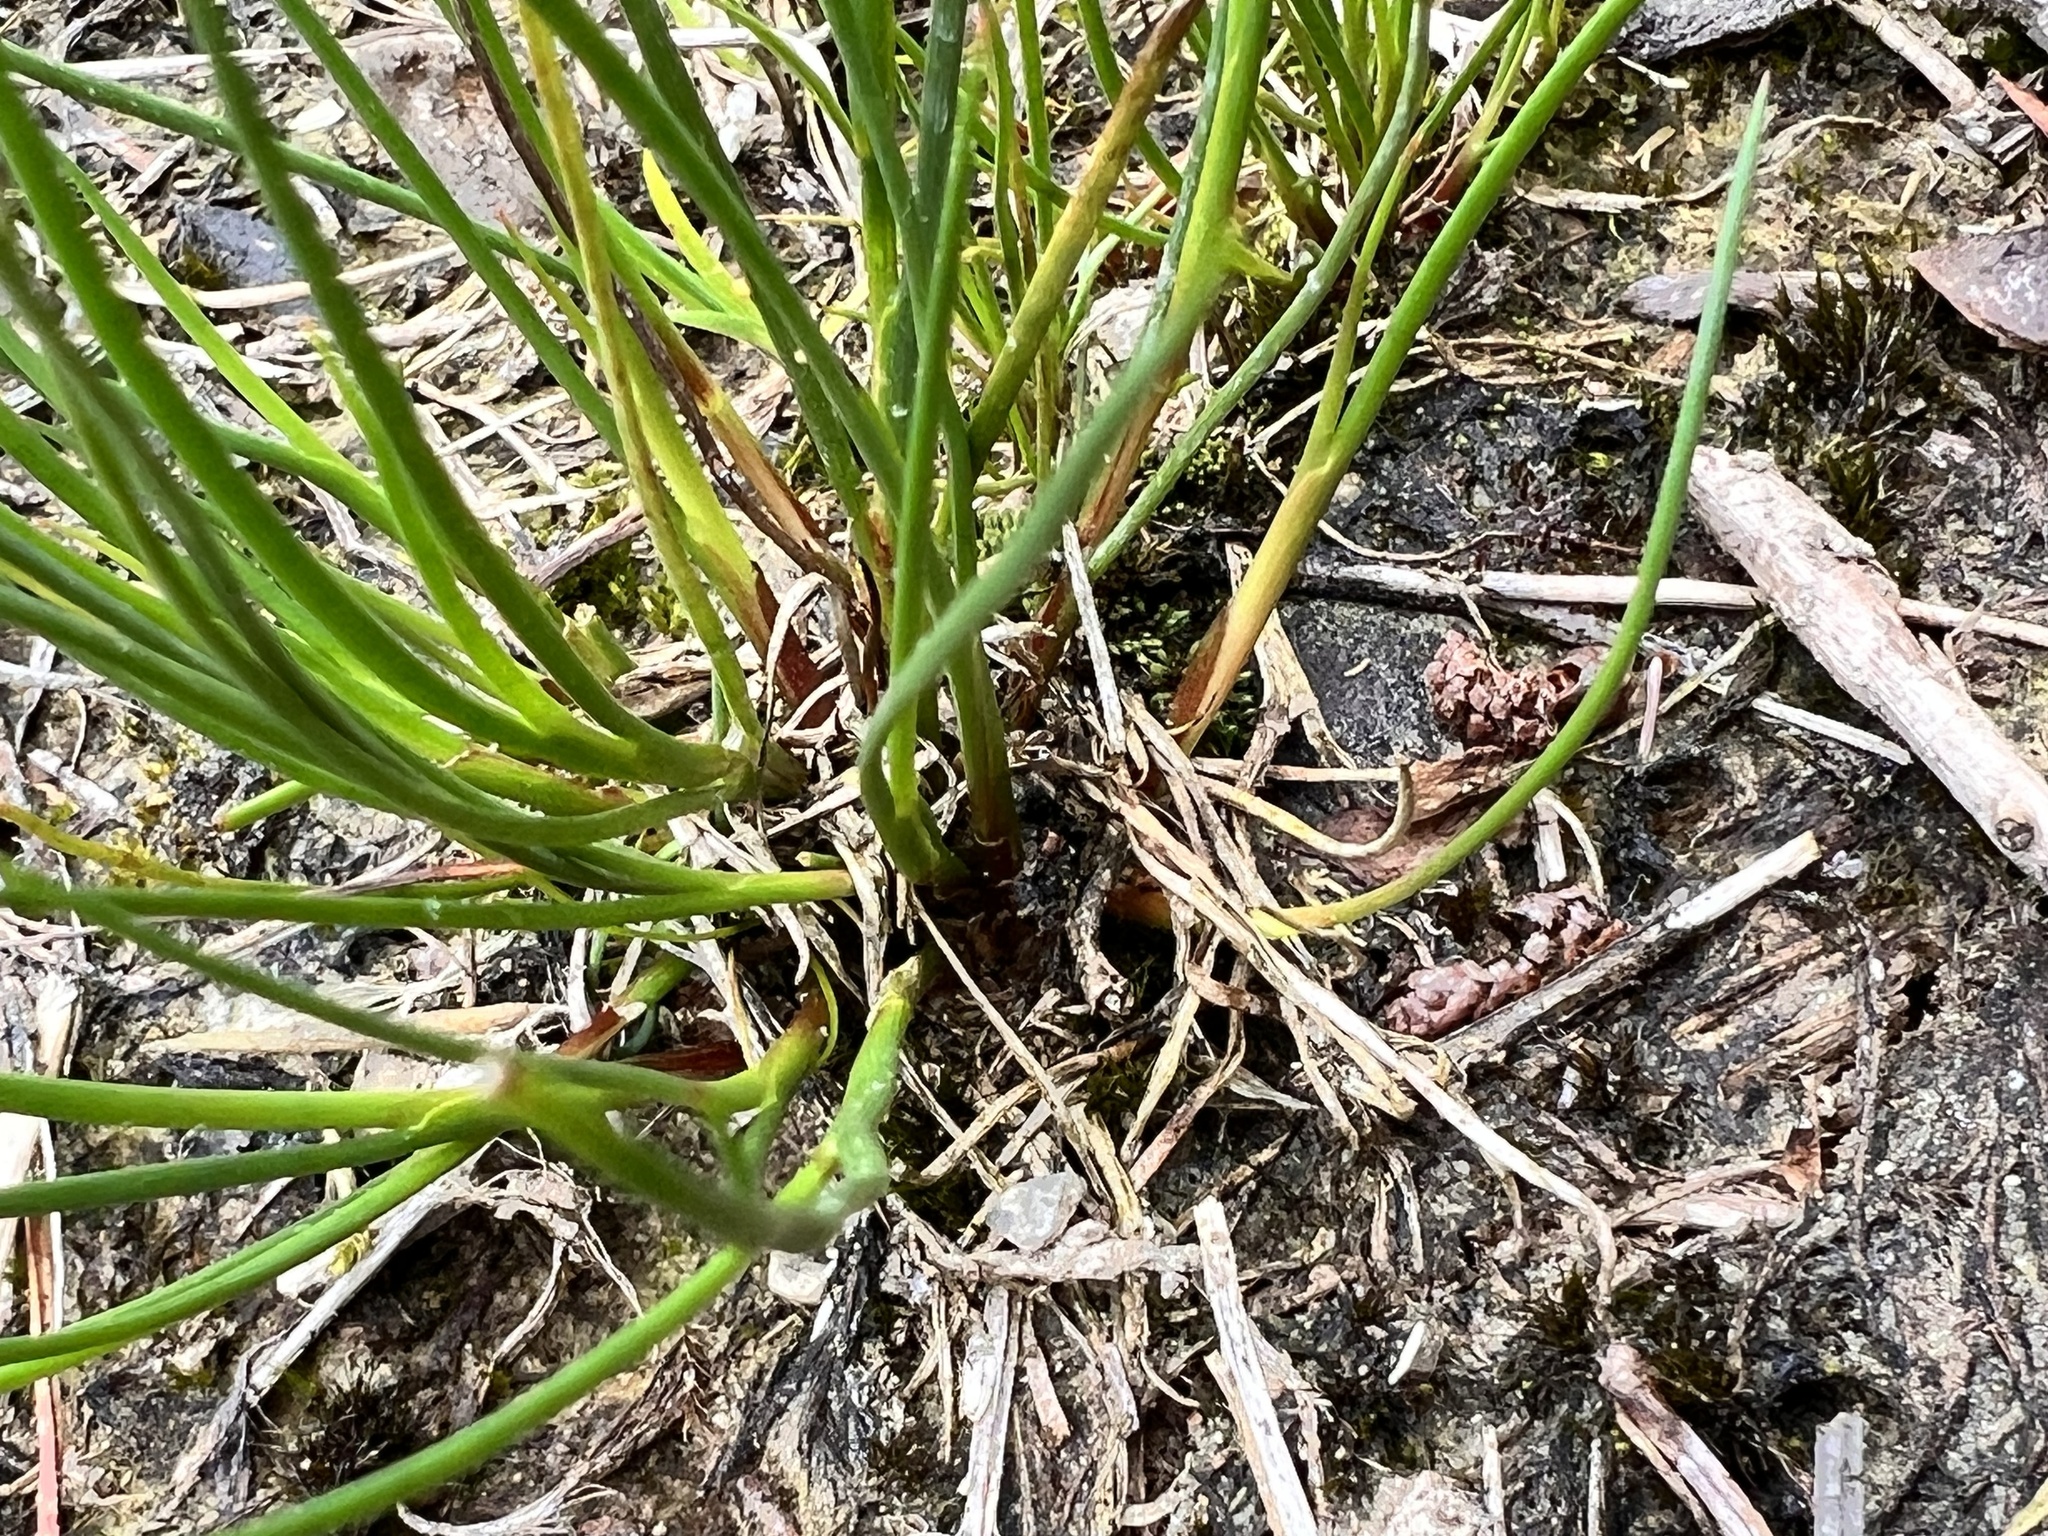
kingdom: Plantae
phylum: Tracheophyta
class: Liliopsida
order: Poales
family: Juncaceae
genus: Juncus
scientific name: Juncus articulatus
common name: Jointed rush
